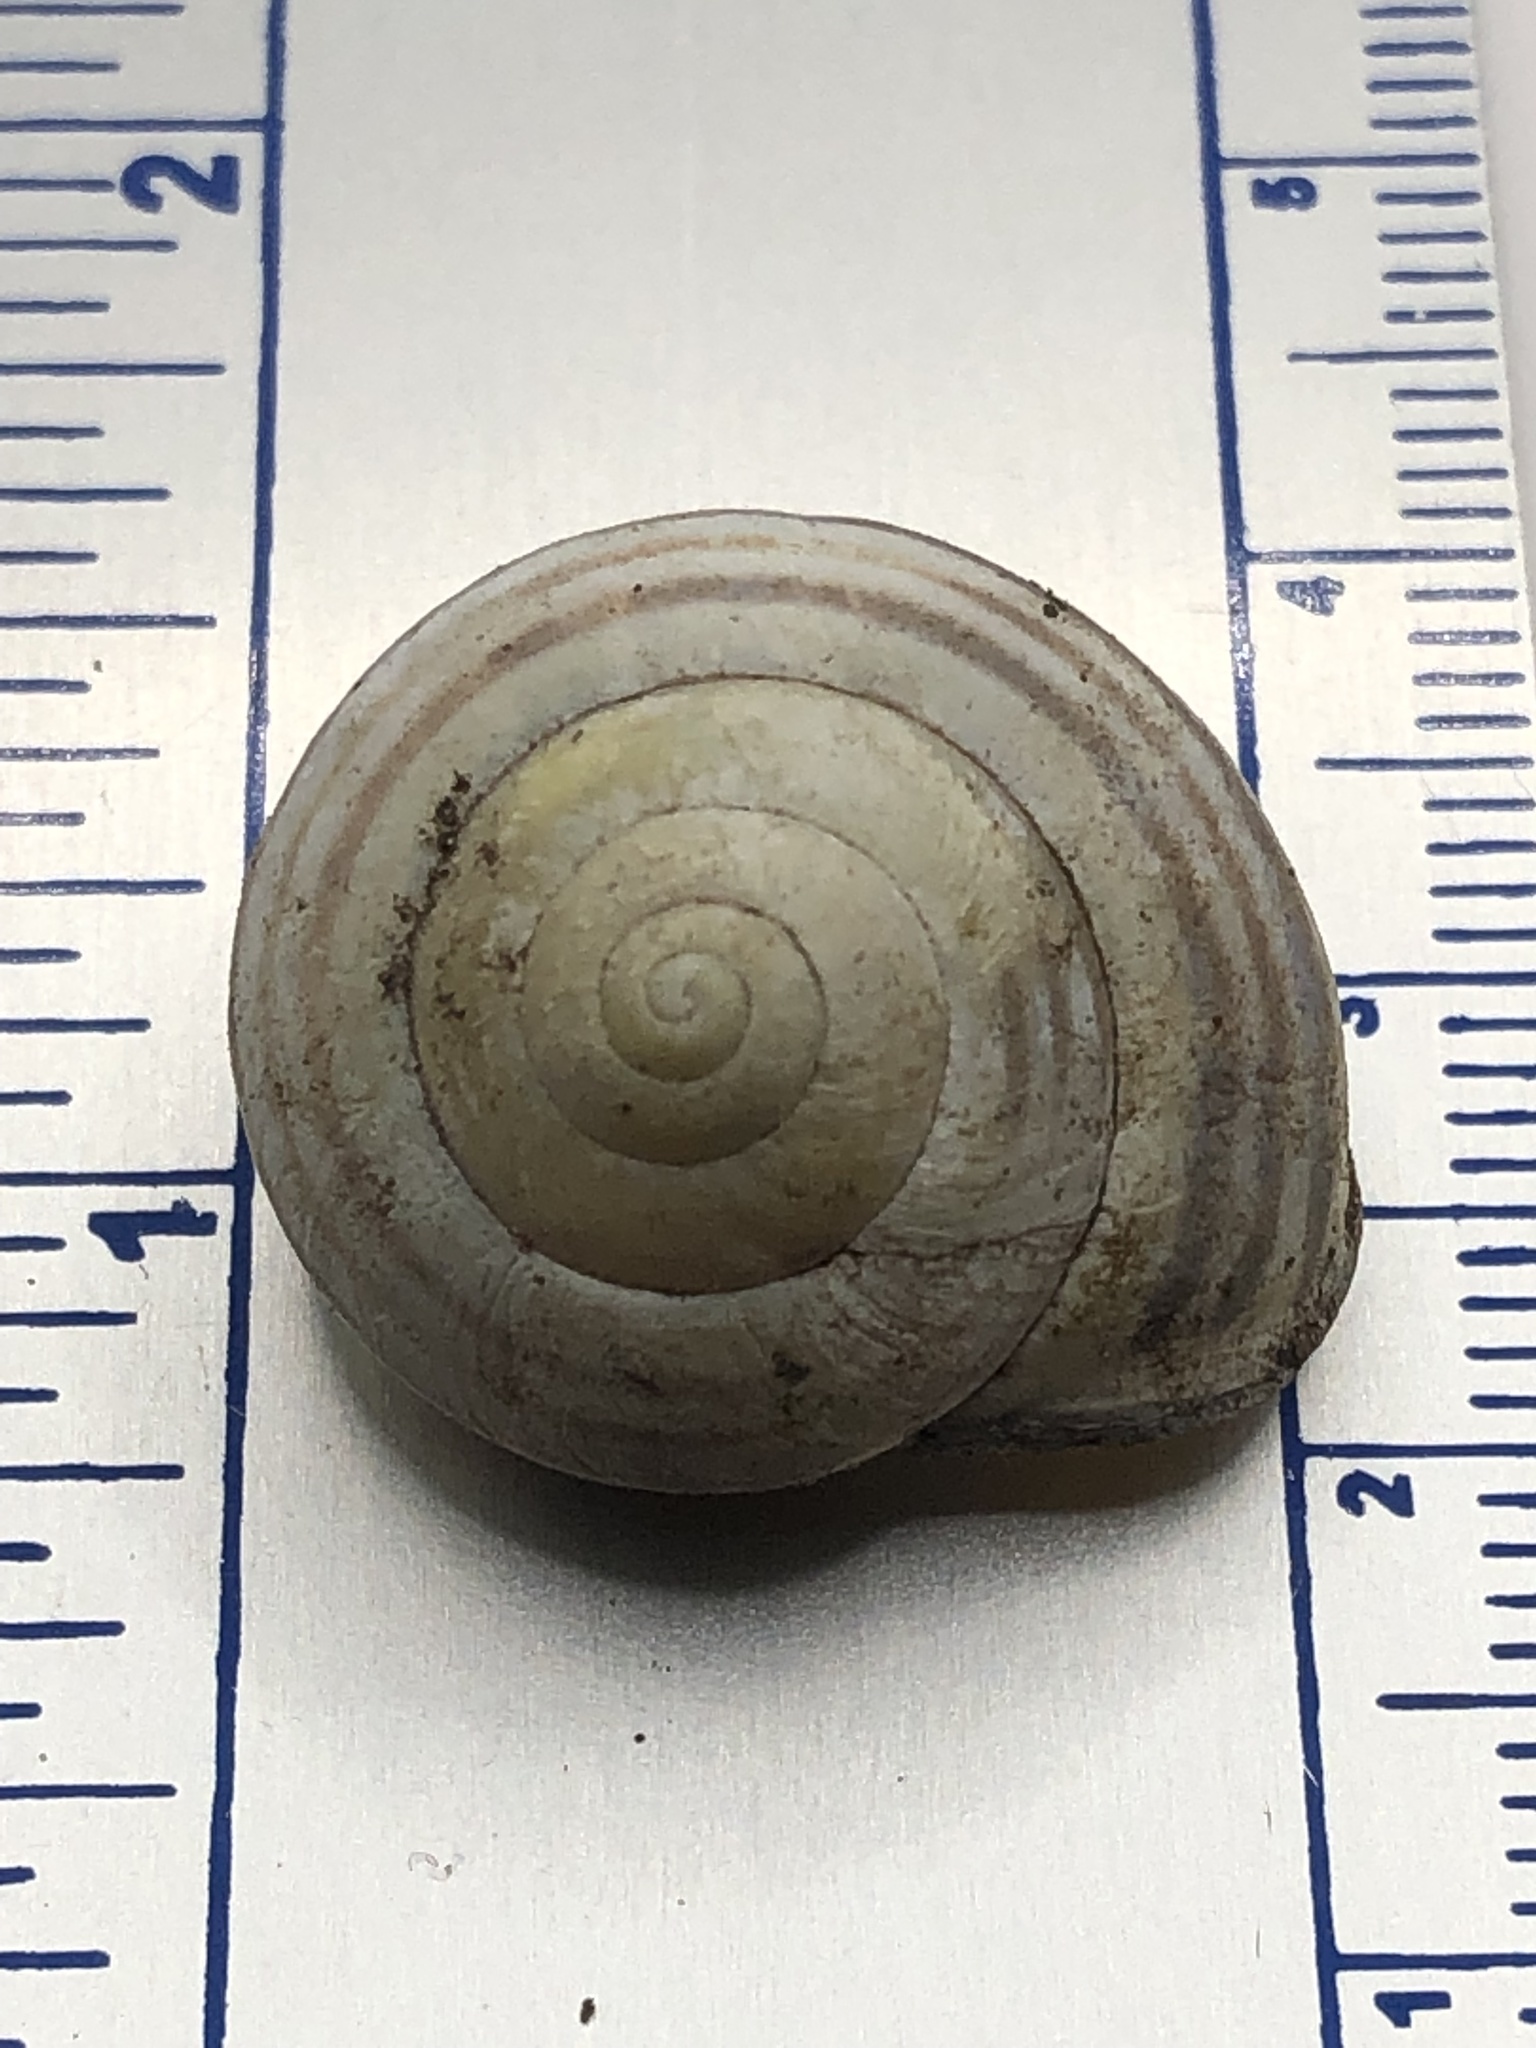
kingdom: Animalia
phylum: Mollusca
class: Gastropoda
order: Stylommatophora
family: Helicidae
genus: Cepaea
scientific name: Cepaea nemoralis
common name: Grovesnail
